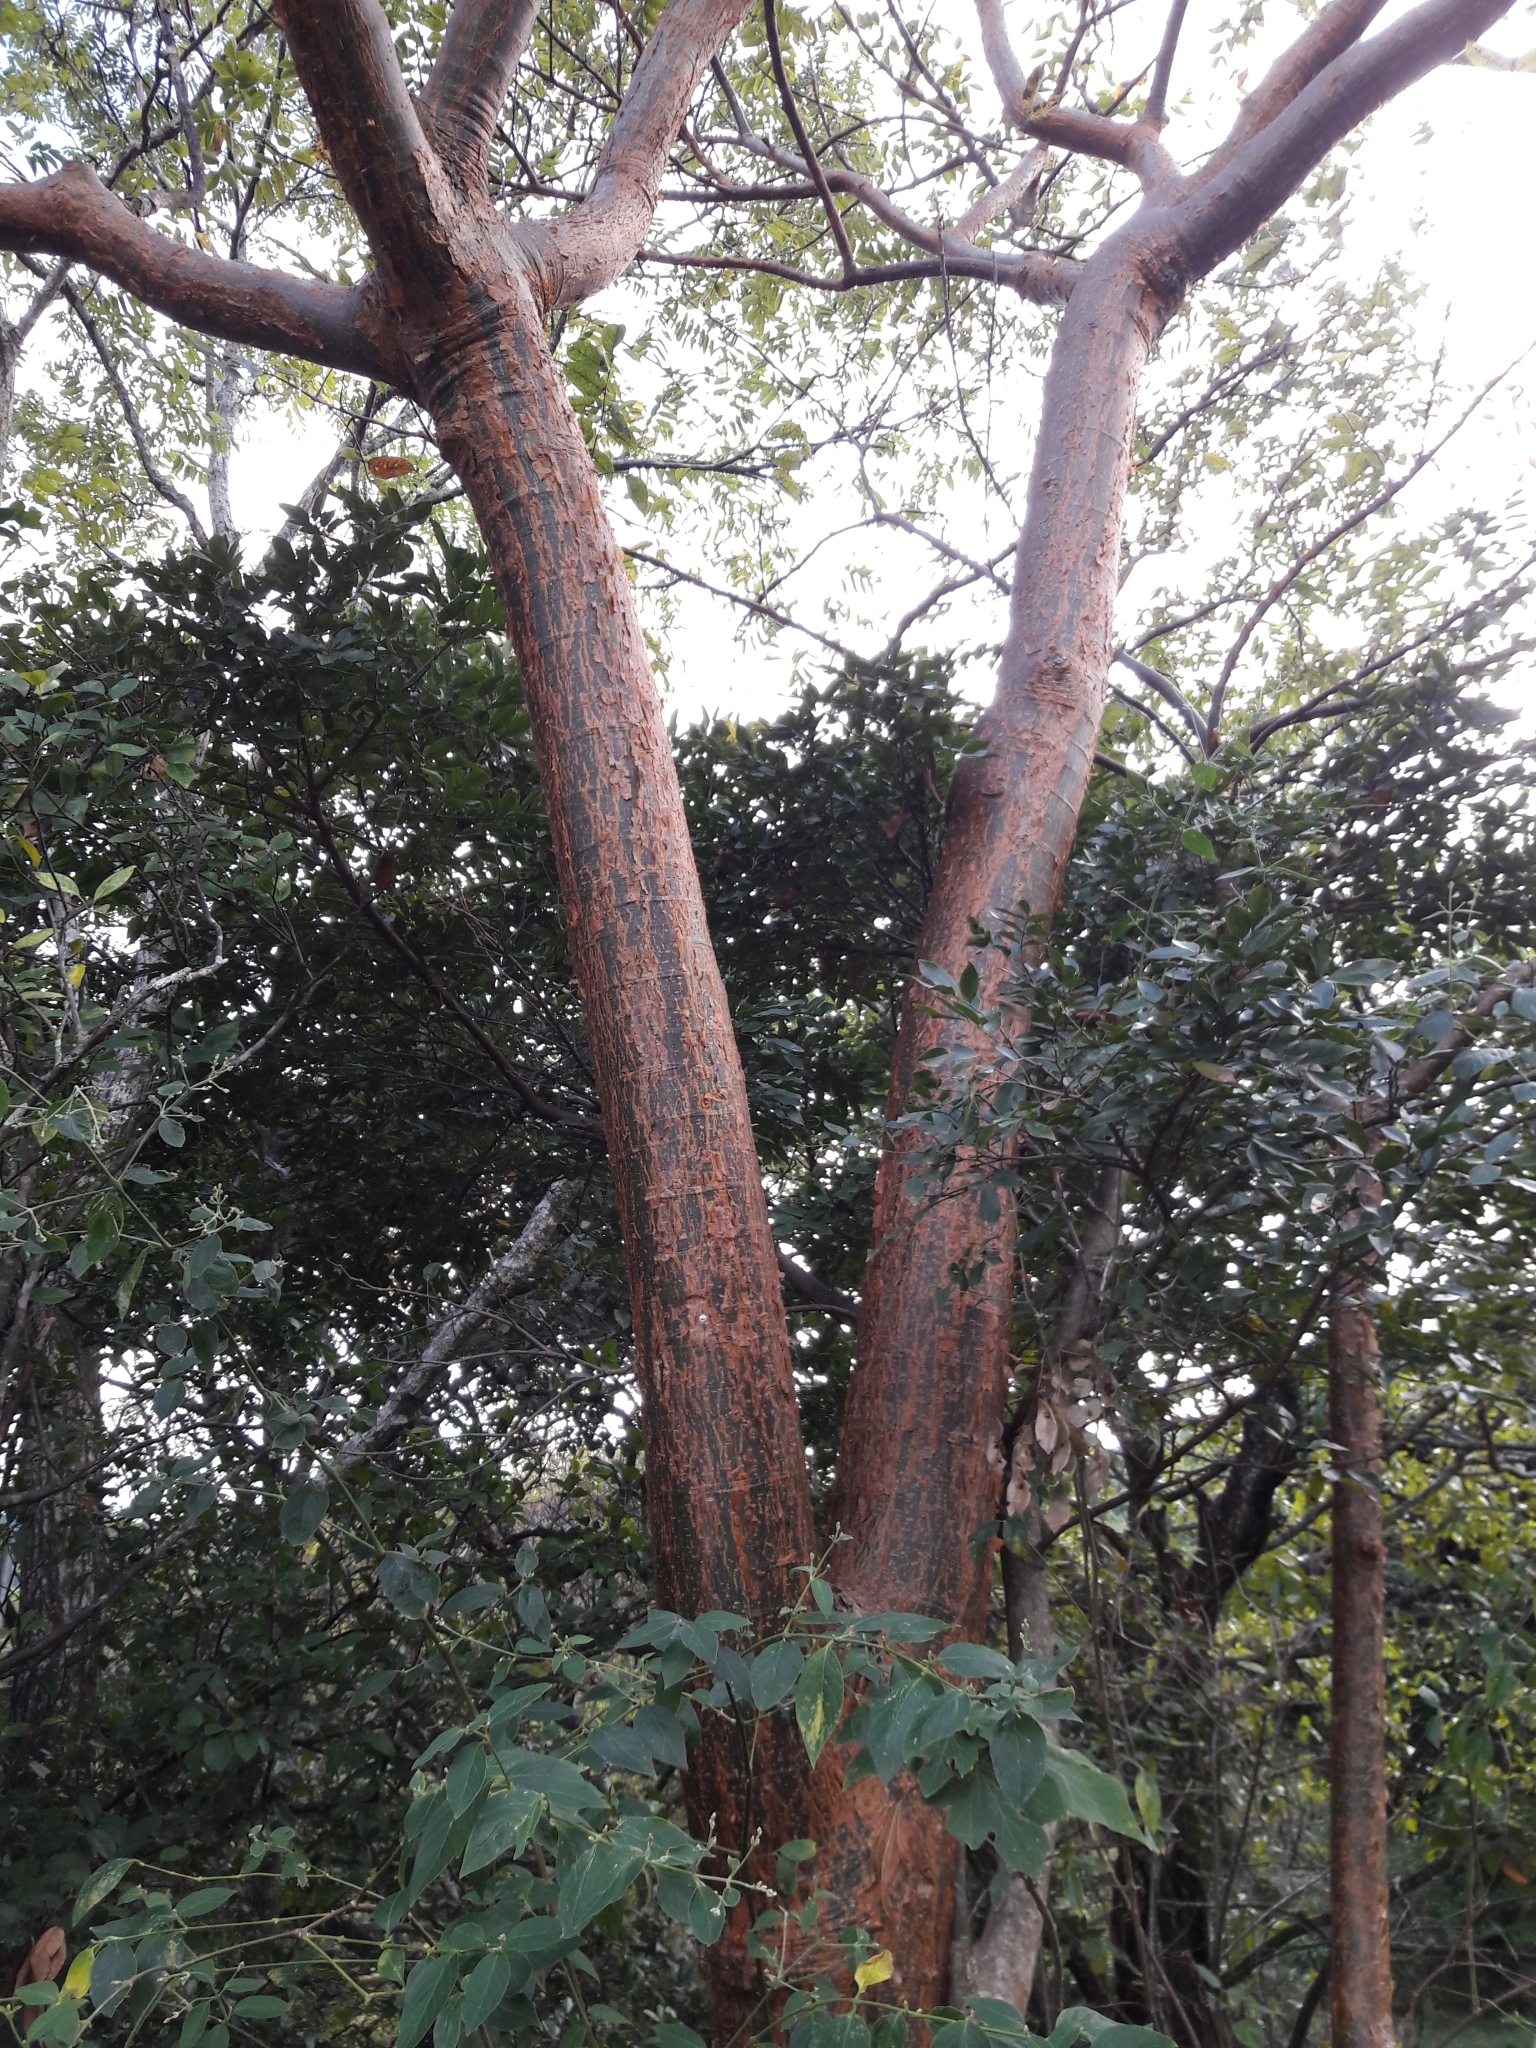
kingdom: Plantae
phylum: Tracheophyta
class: Magnoliopsida
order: Sapindales
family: Burseraceae
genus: Bursera
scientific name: Bursera simaruba
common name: Turpentine tree
